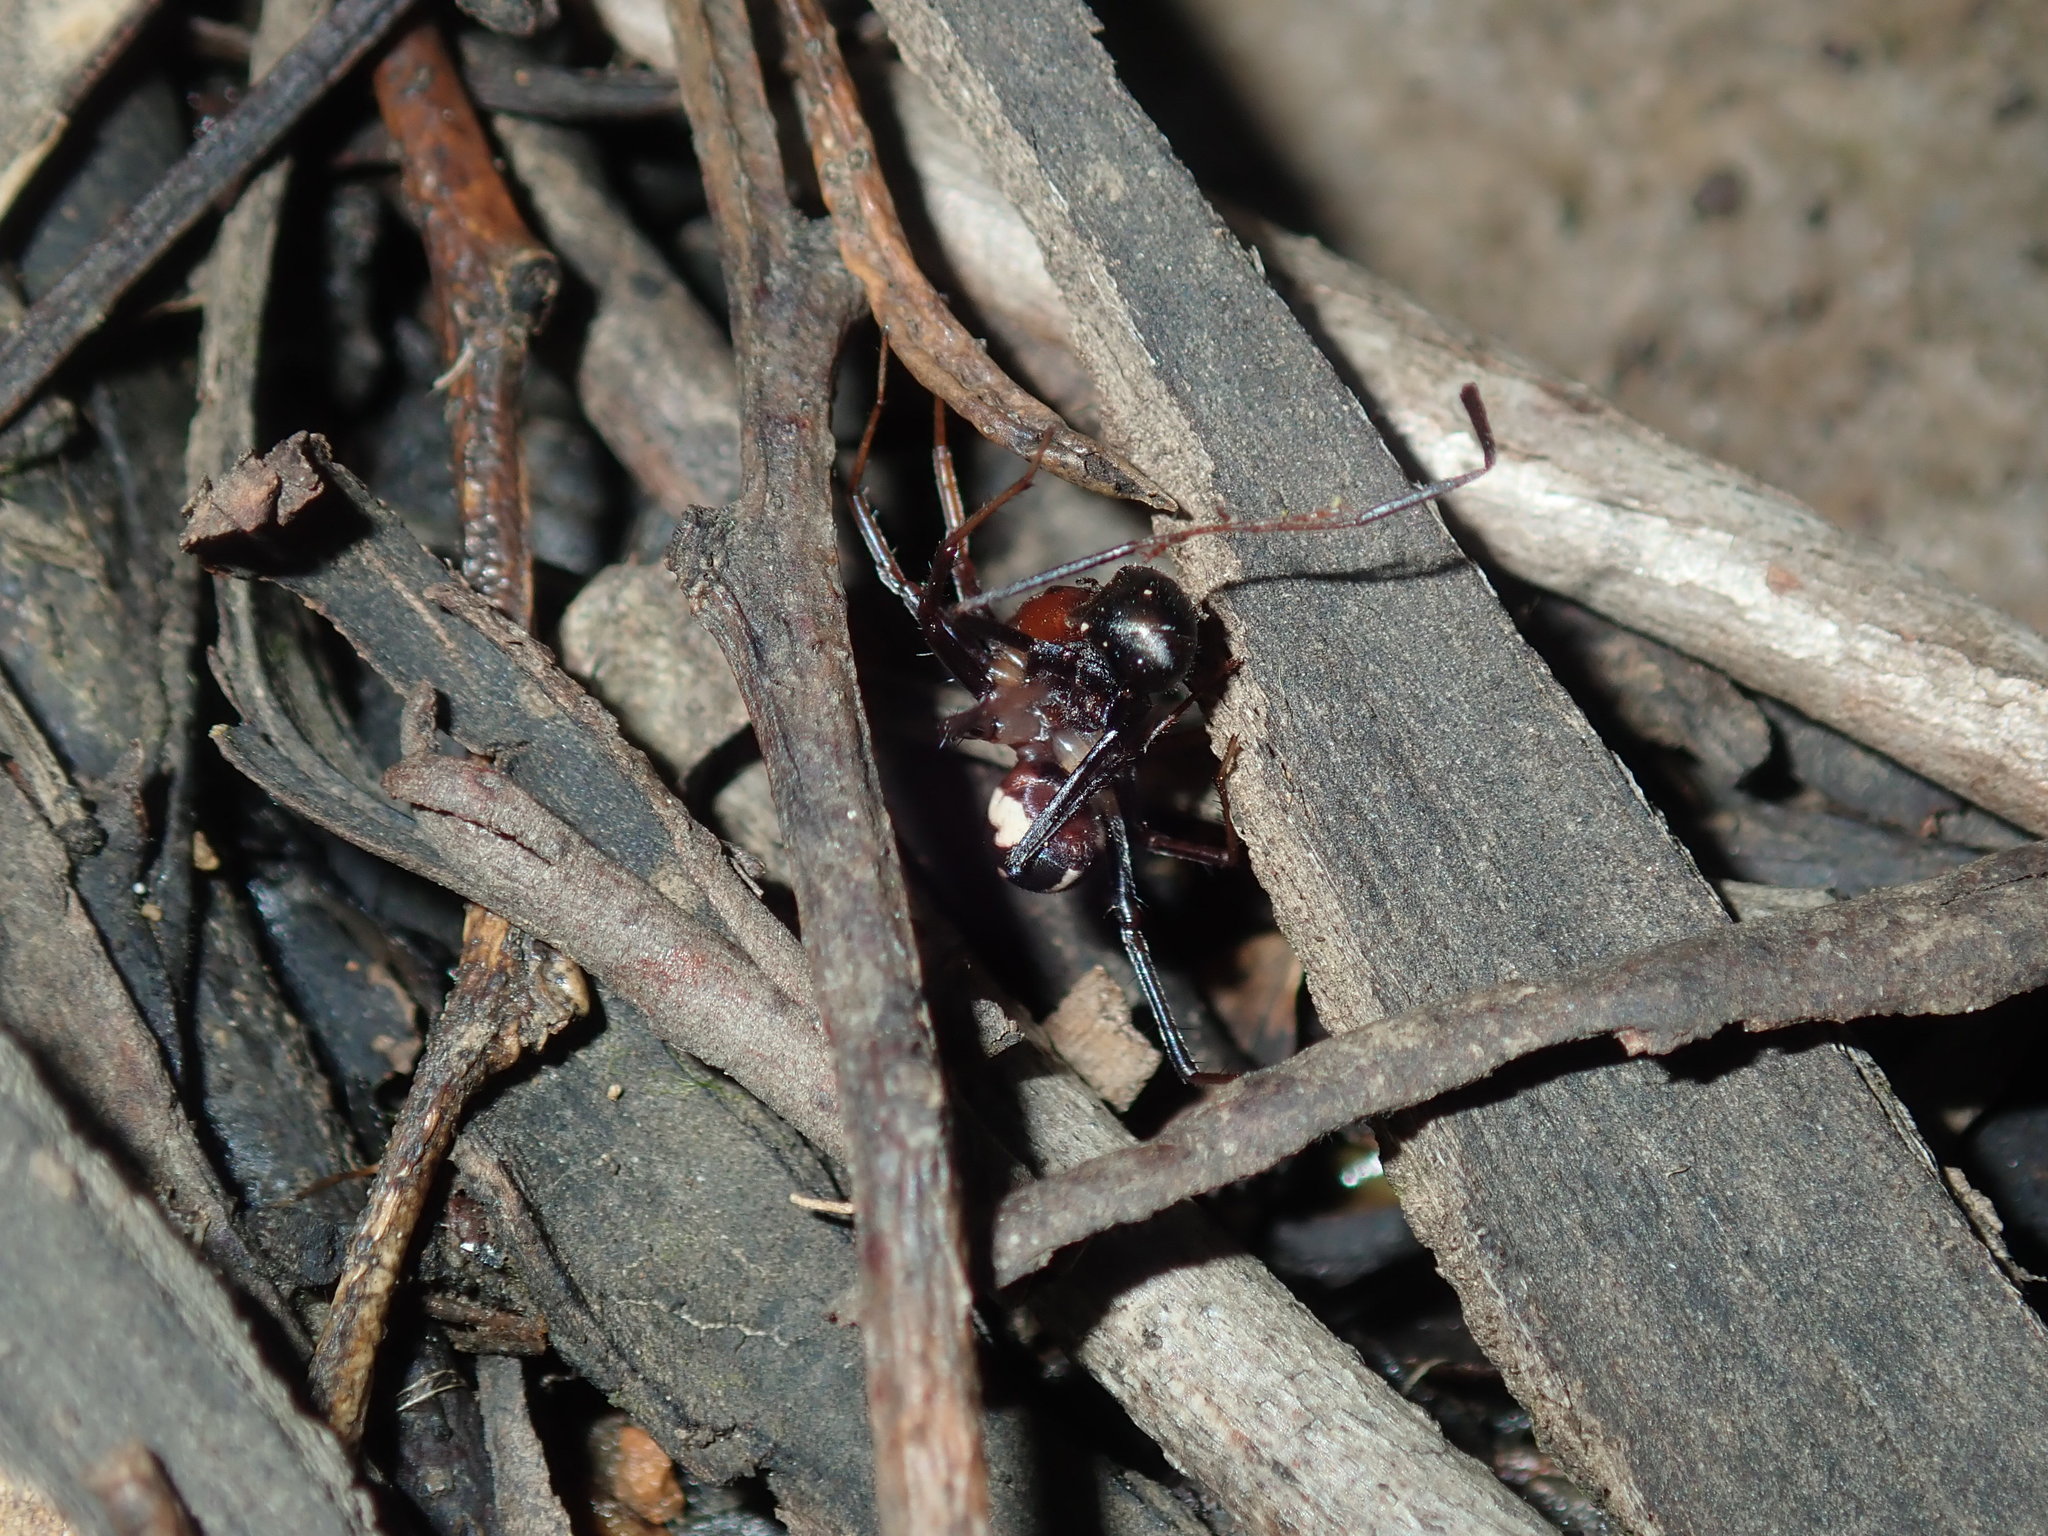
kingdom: Animalia
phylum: Arthropoda
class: Arachnida
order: Araneae
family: Zodariidae
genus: Habronestes
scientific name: Habronestes bradleyi
